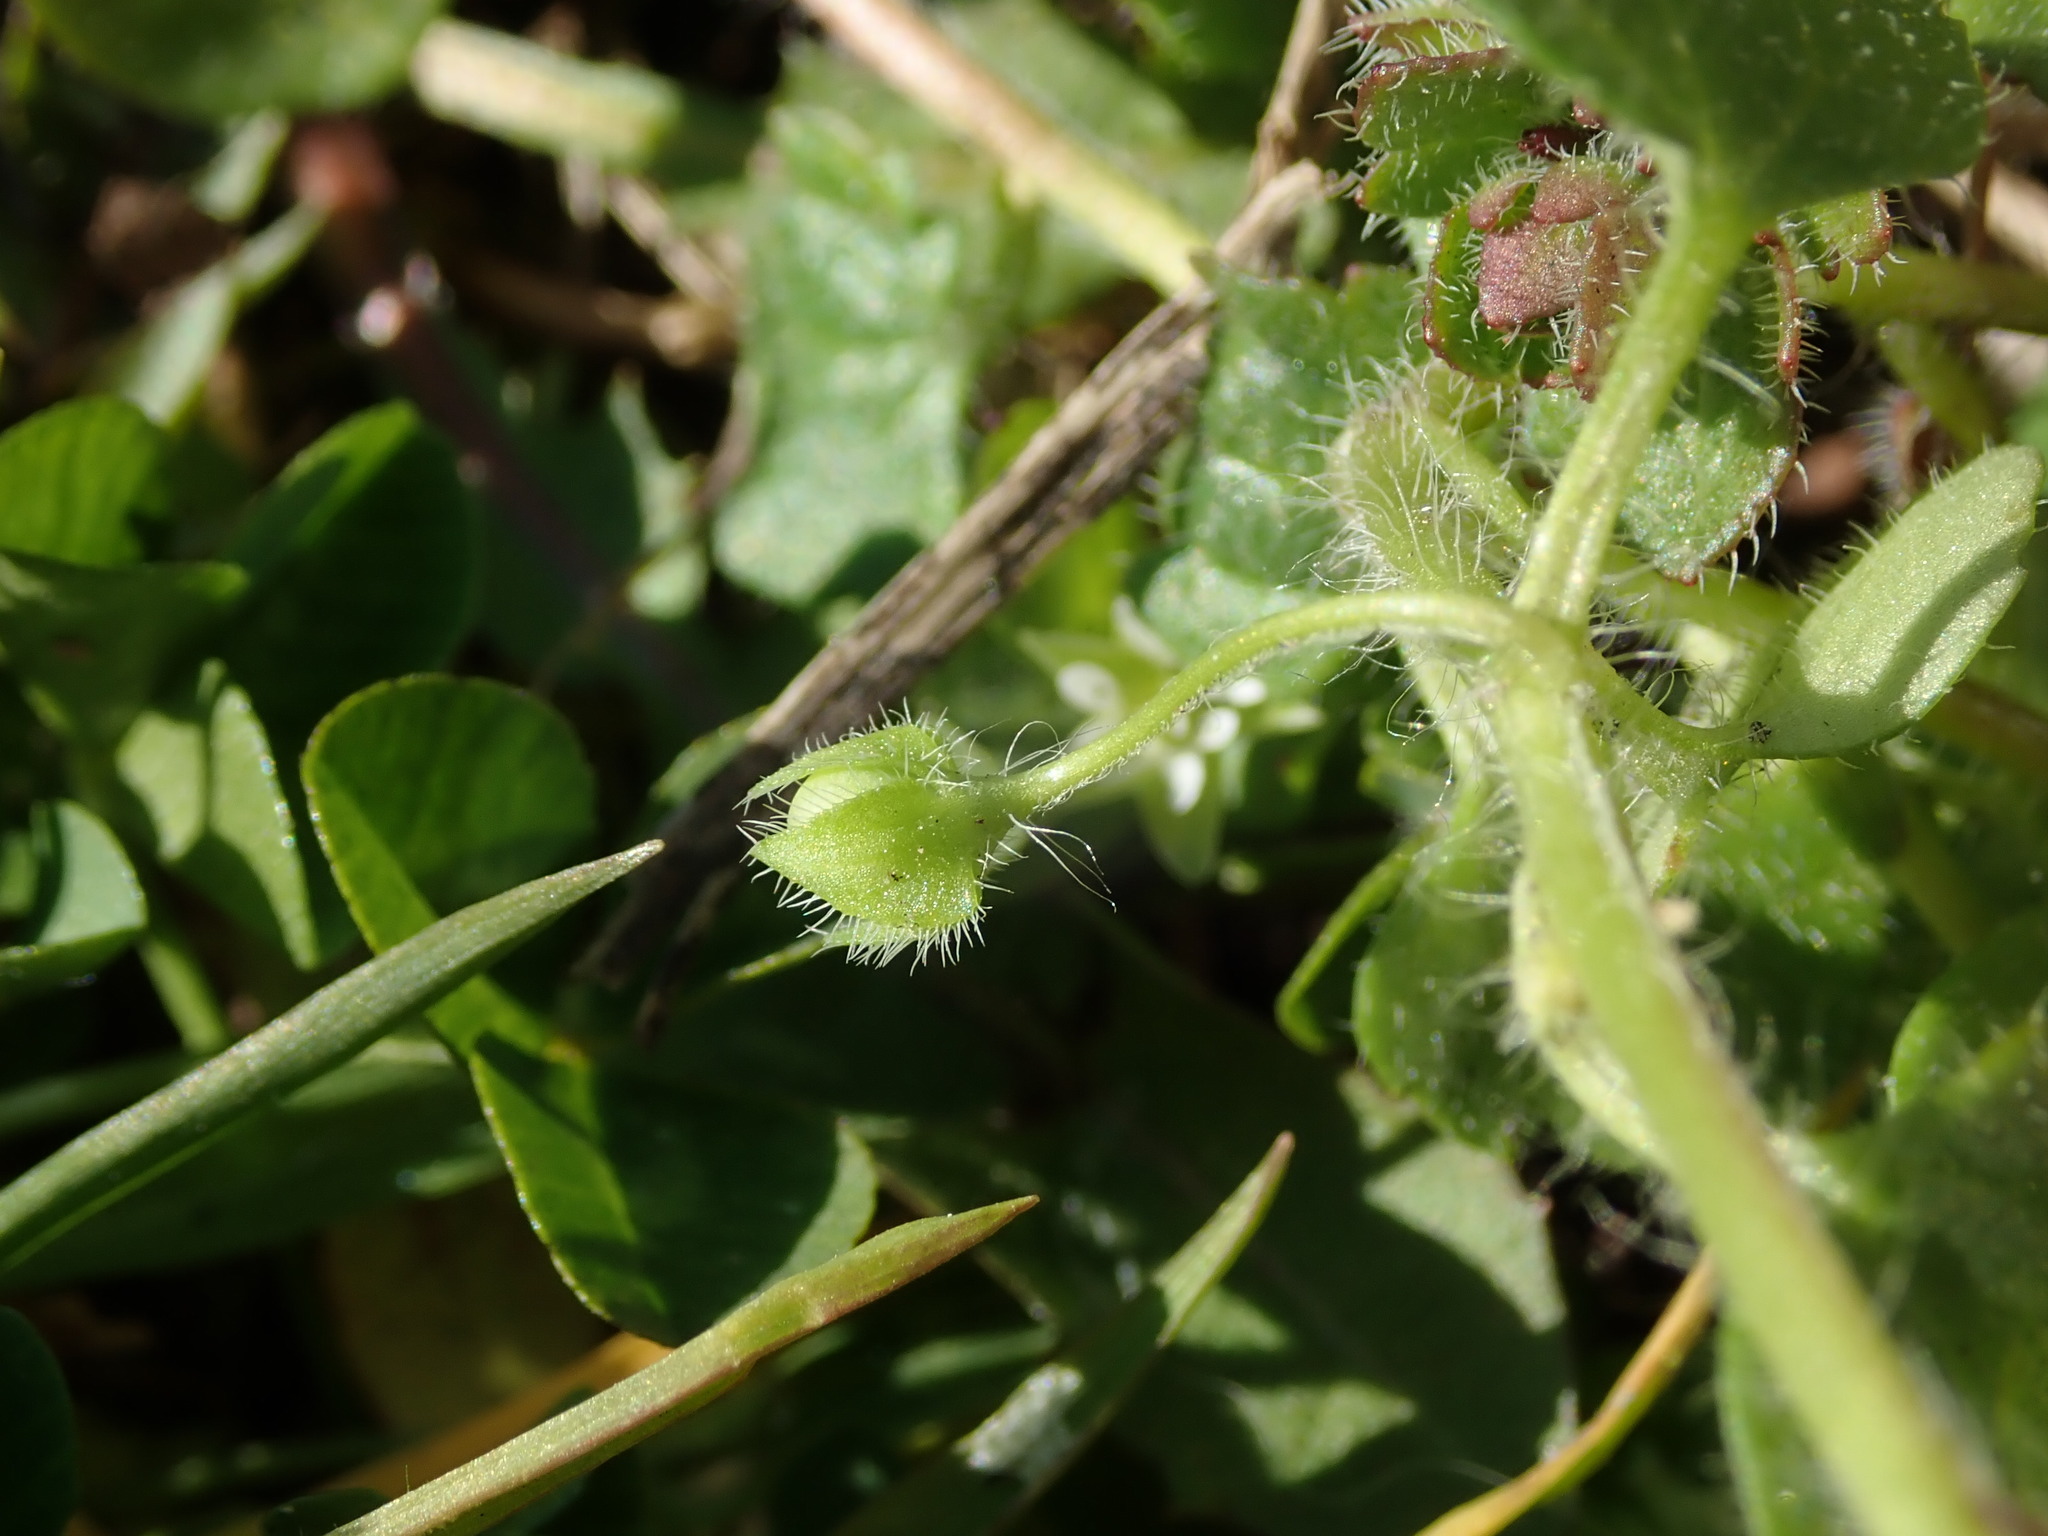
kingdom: Plantae
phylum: Tracheophyta
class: Magnoliopsida
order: Lamiales
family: Plantaginaceae
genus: Veronica
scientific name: Veronica hederifolia
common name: Ivy-leaved speedwell
